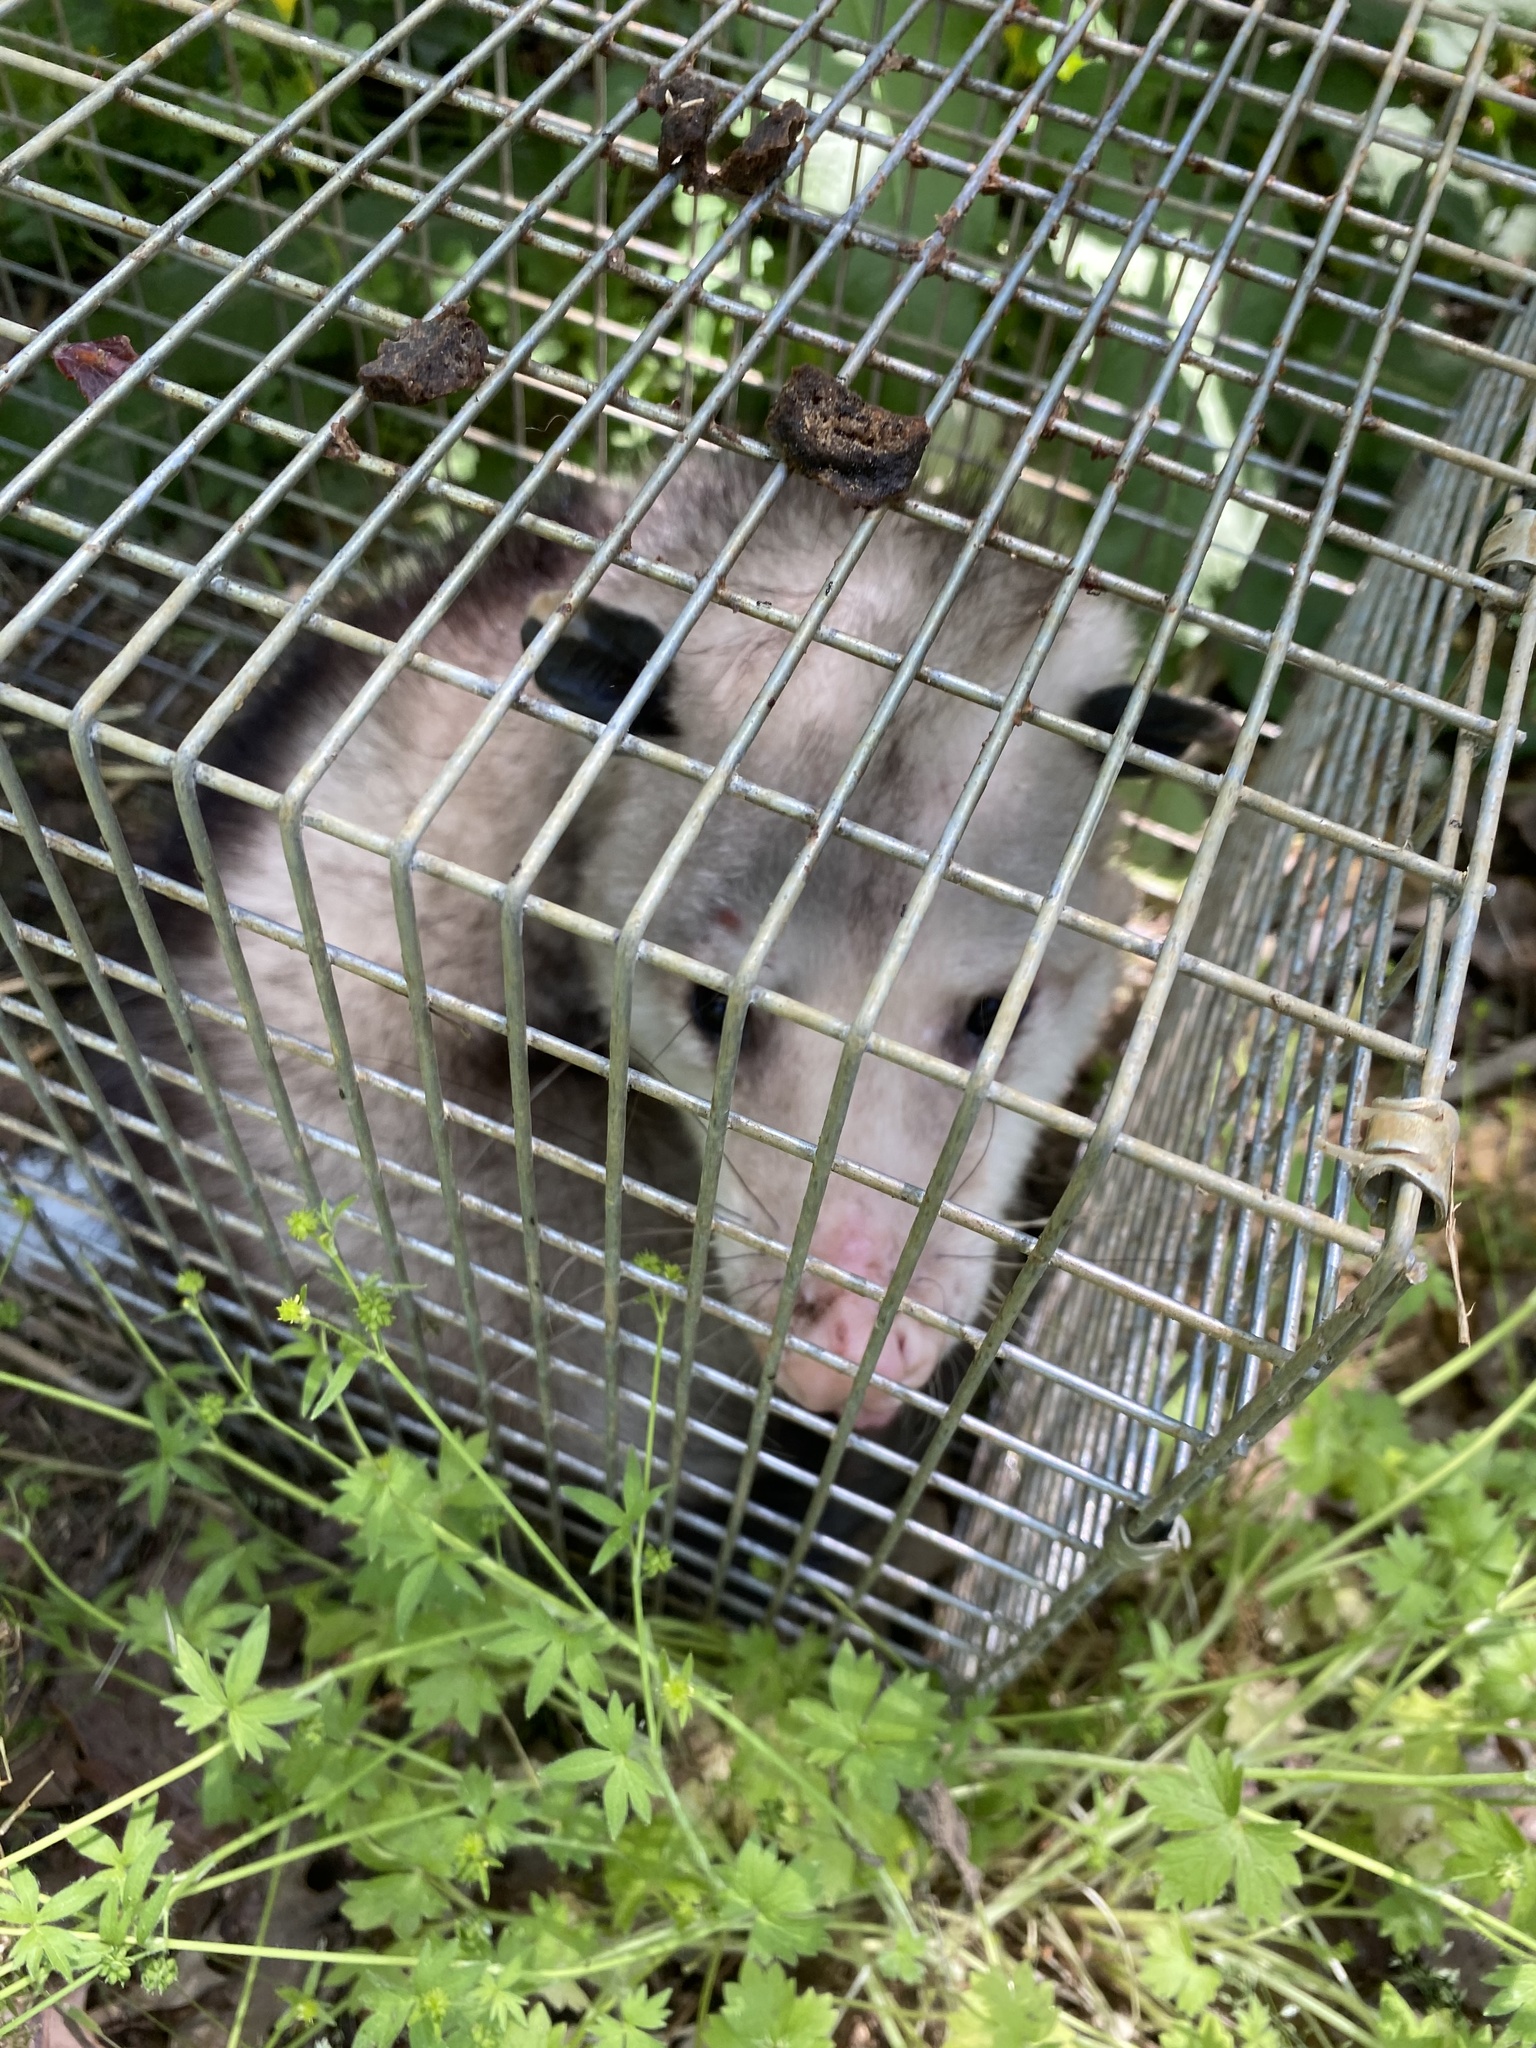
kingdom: Animalia
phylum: Chordata
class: Mammalia
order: Didelphimorphia
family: Didelphidae
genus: Didelphis
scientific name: Didelphis virginiana
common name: Virginia opossum
